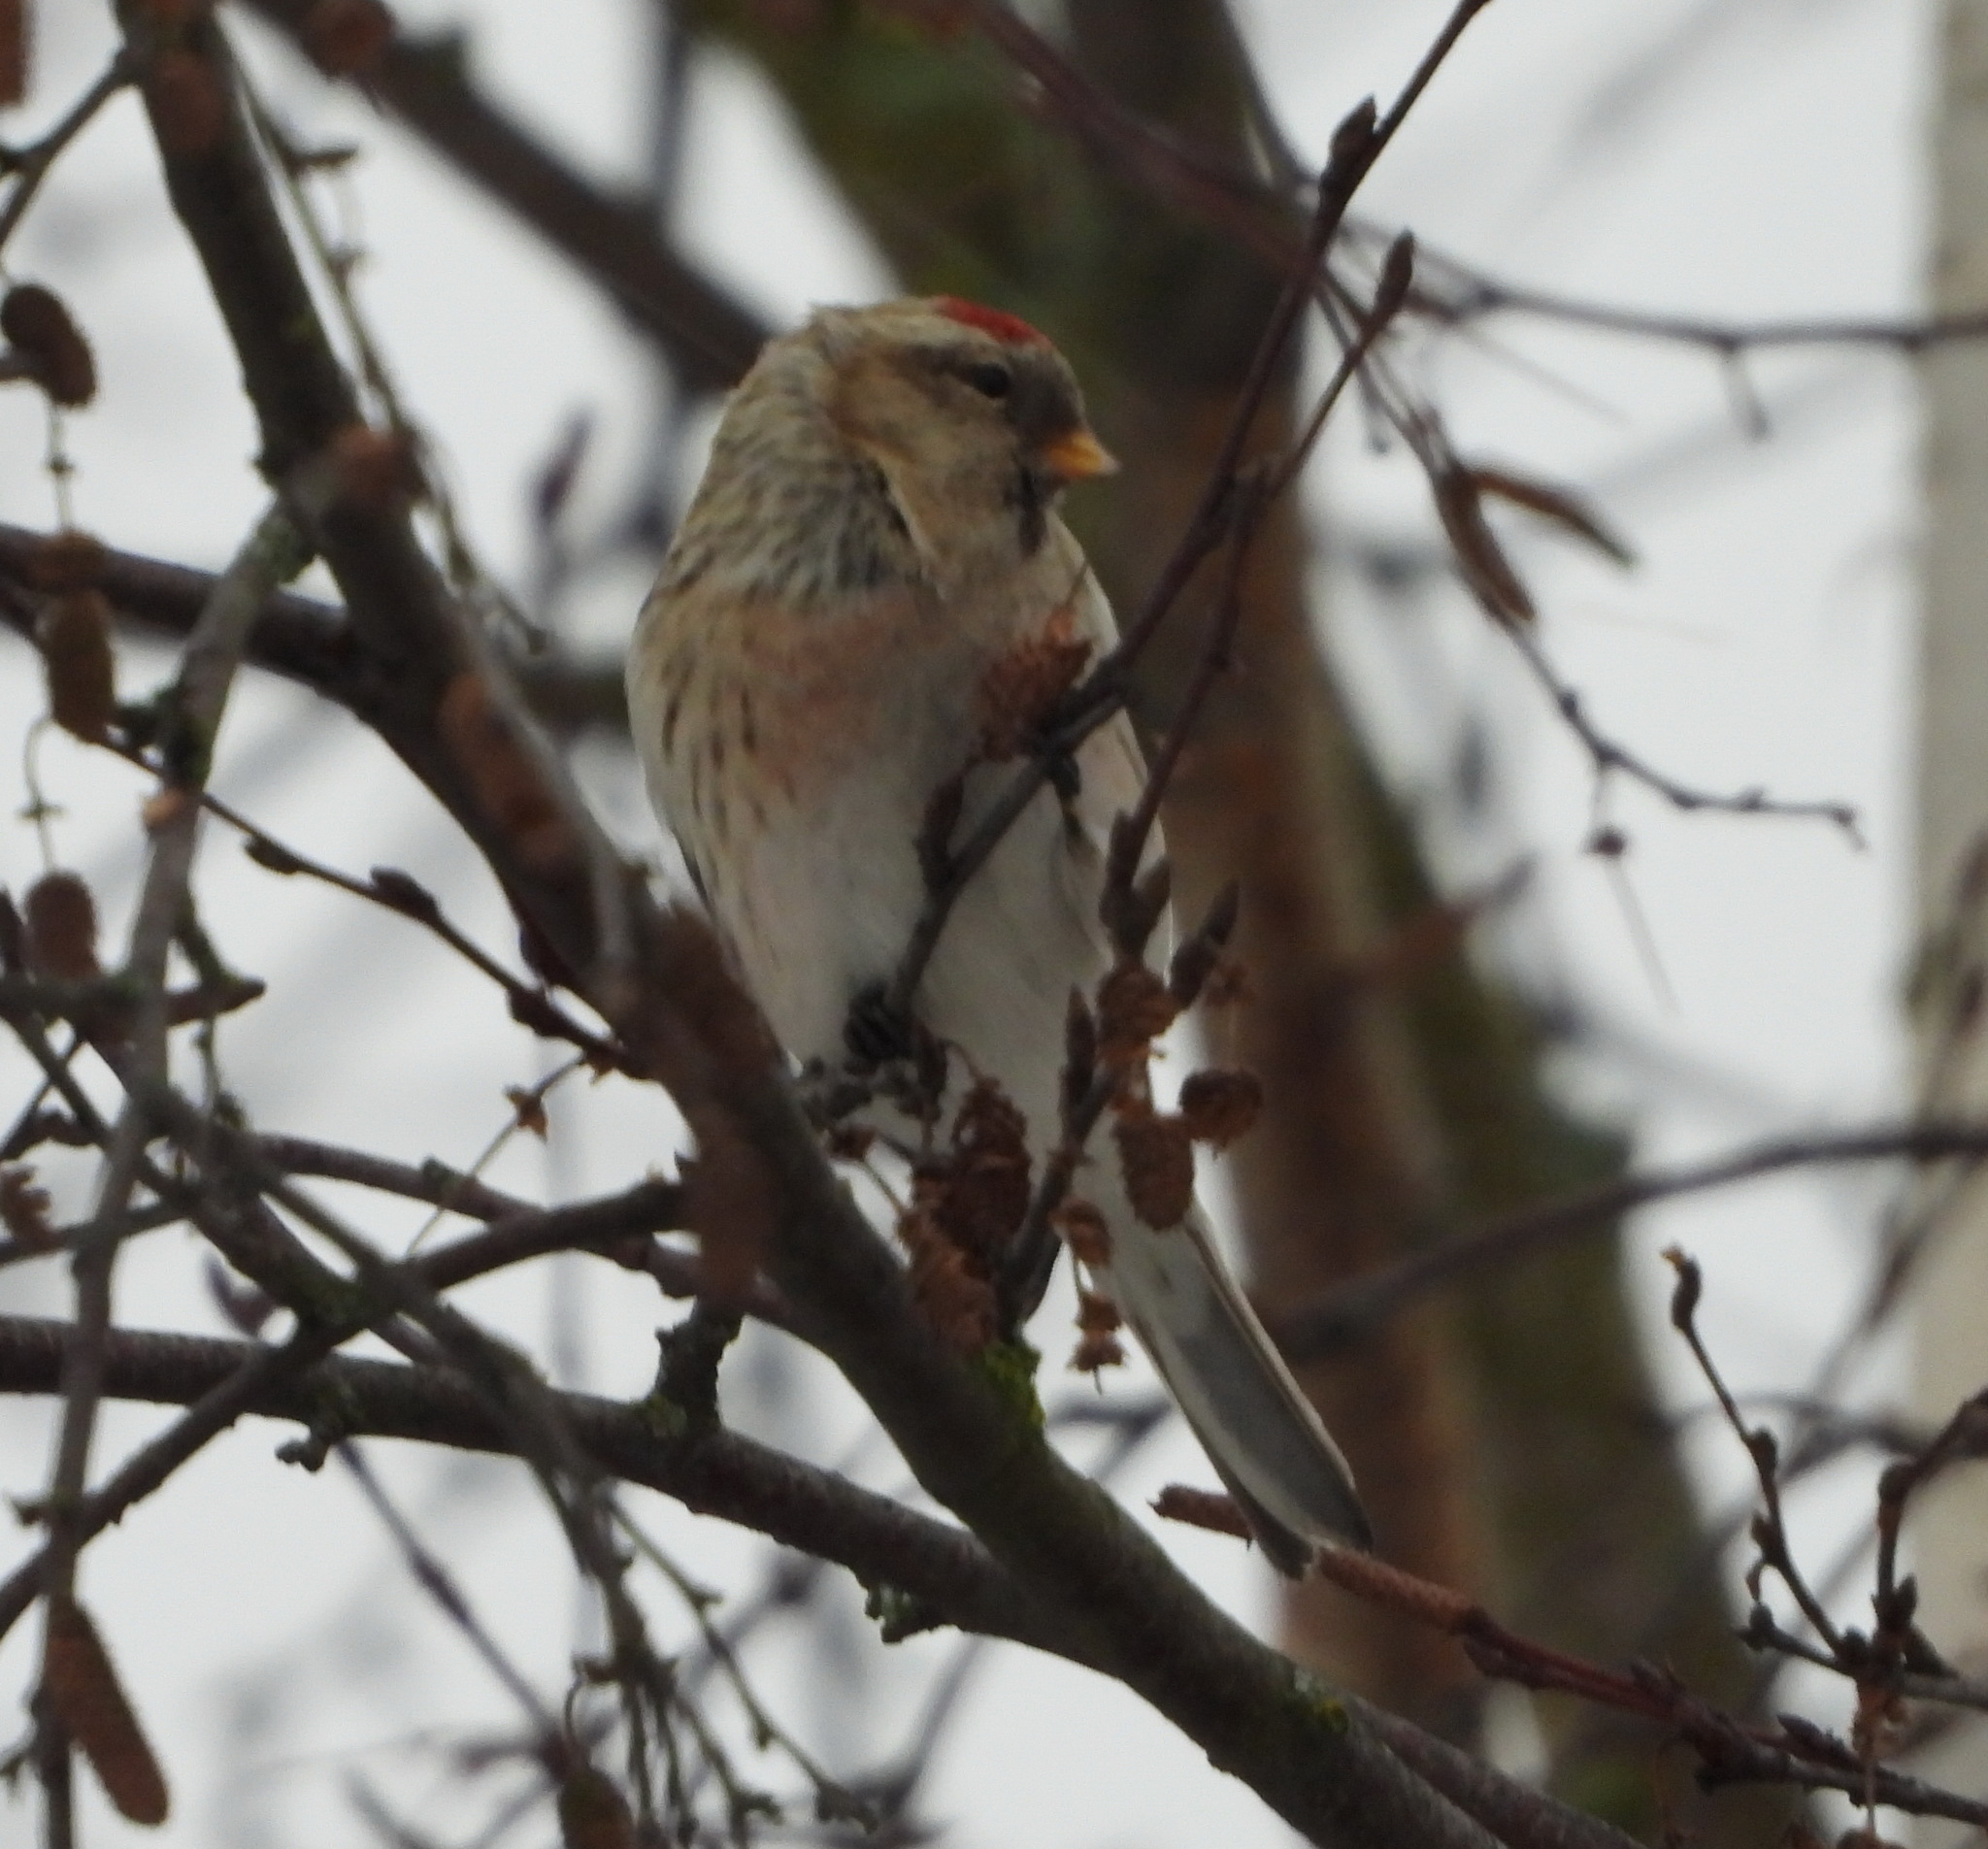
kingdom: Animalia
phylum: Chordata
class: Aves
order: Passeriformes
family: Fringillidae
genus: Acanthis
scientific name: Acanthis flammea
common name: Common redpoll
